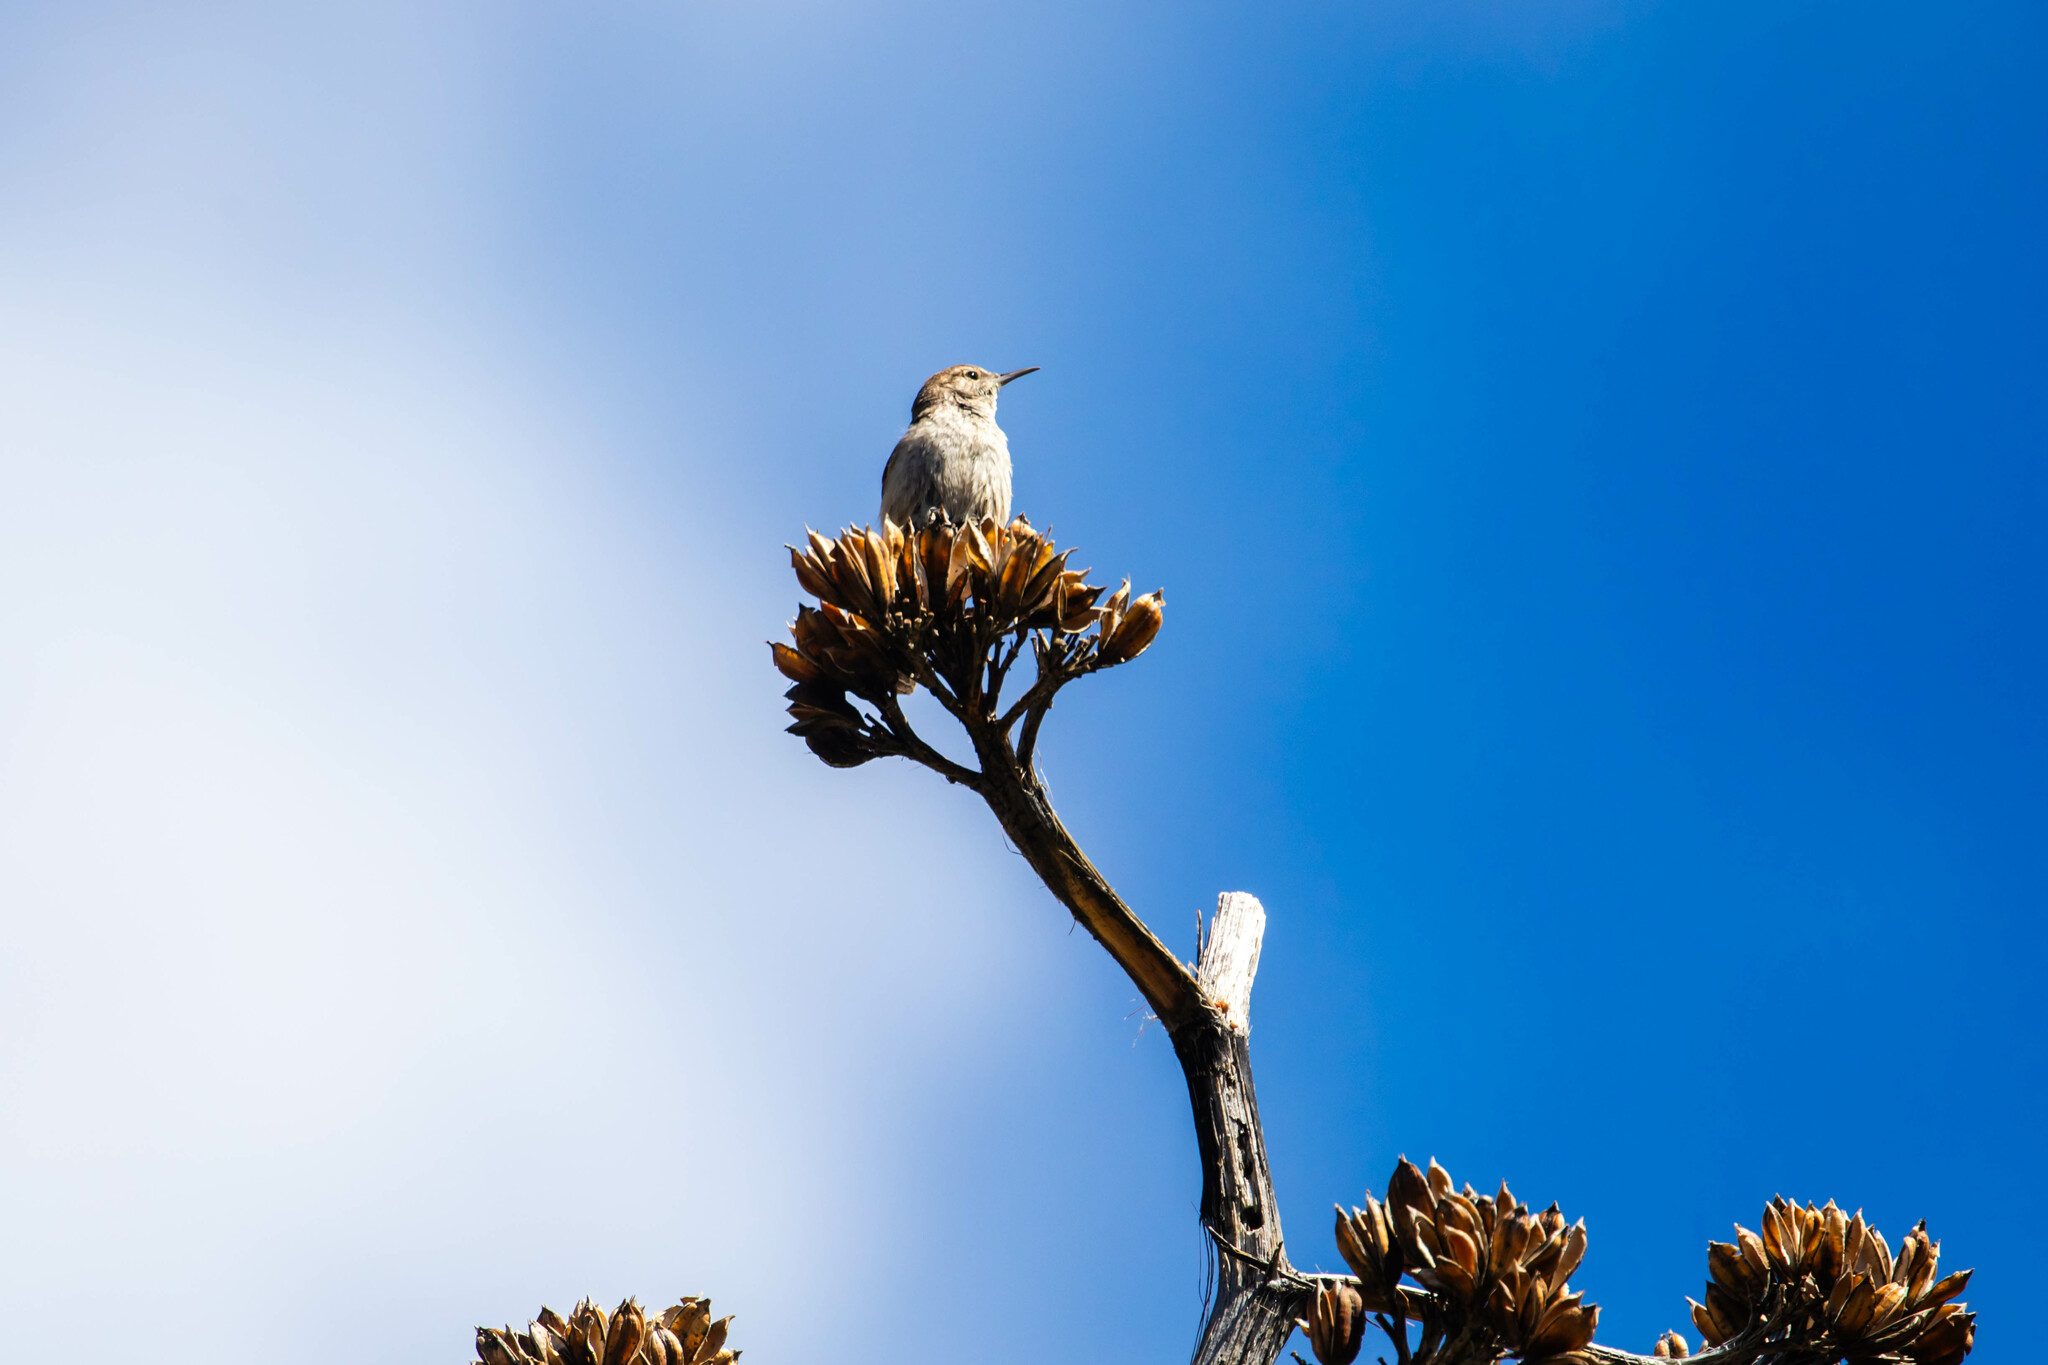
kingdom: Animalia
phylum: Chordata
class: Aves
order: Passeriformes
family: Troglodytidae
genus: Salpinctes
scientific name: Salpinctes obsoletus
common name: Rock wren
